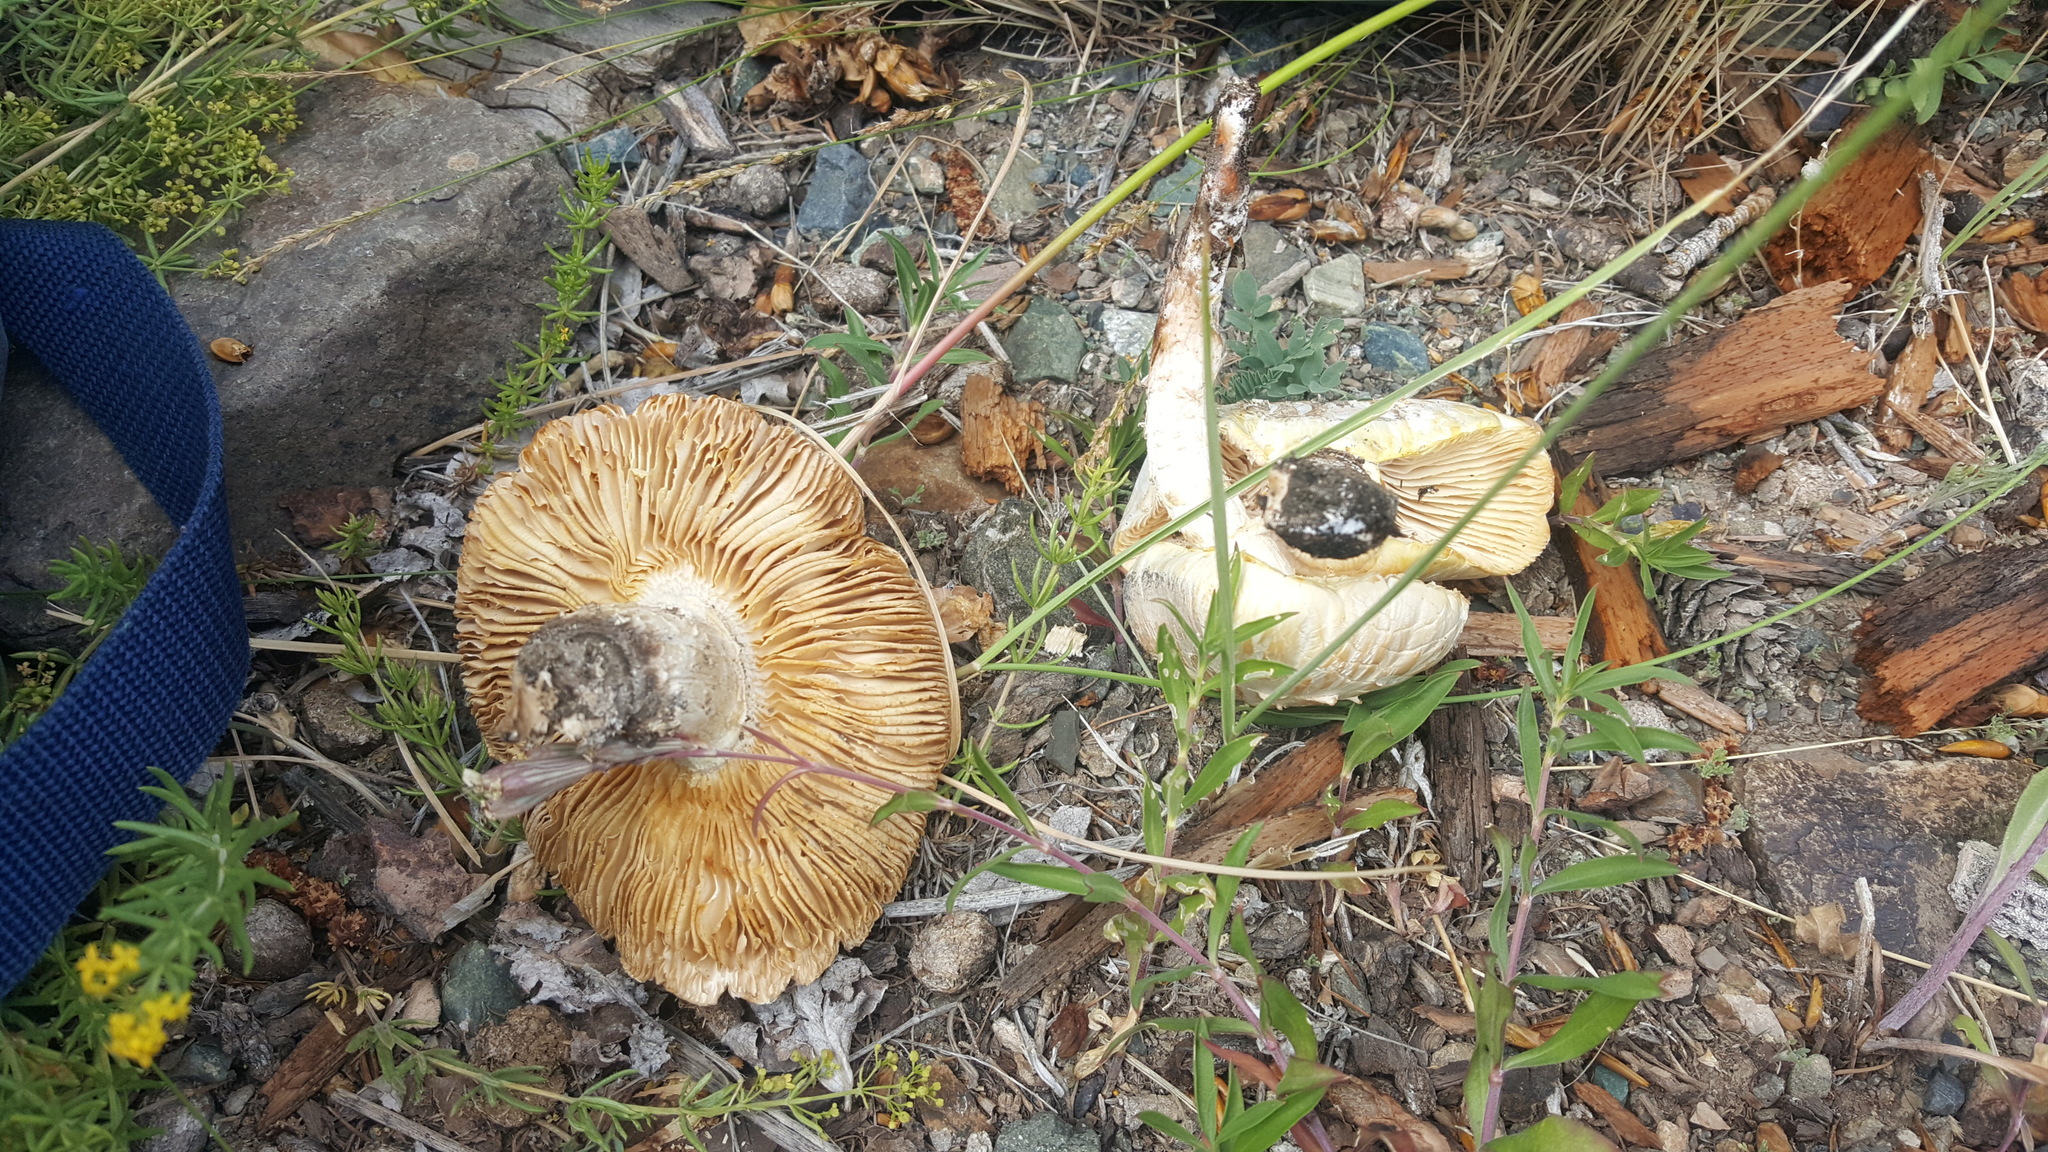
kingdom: Fungi
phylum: Basidiomycota
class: Agaricomycetes
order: Gloeophyllales
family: Gloeophyllaceae
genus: Neolentinus
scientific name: Neolentinus lepideus
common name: Scaly sawgill
